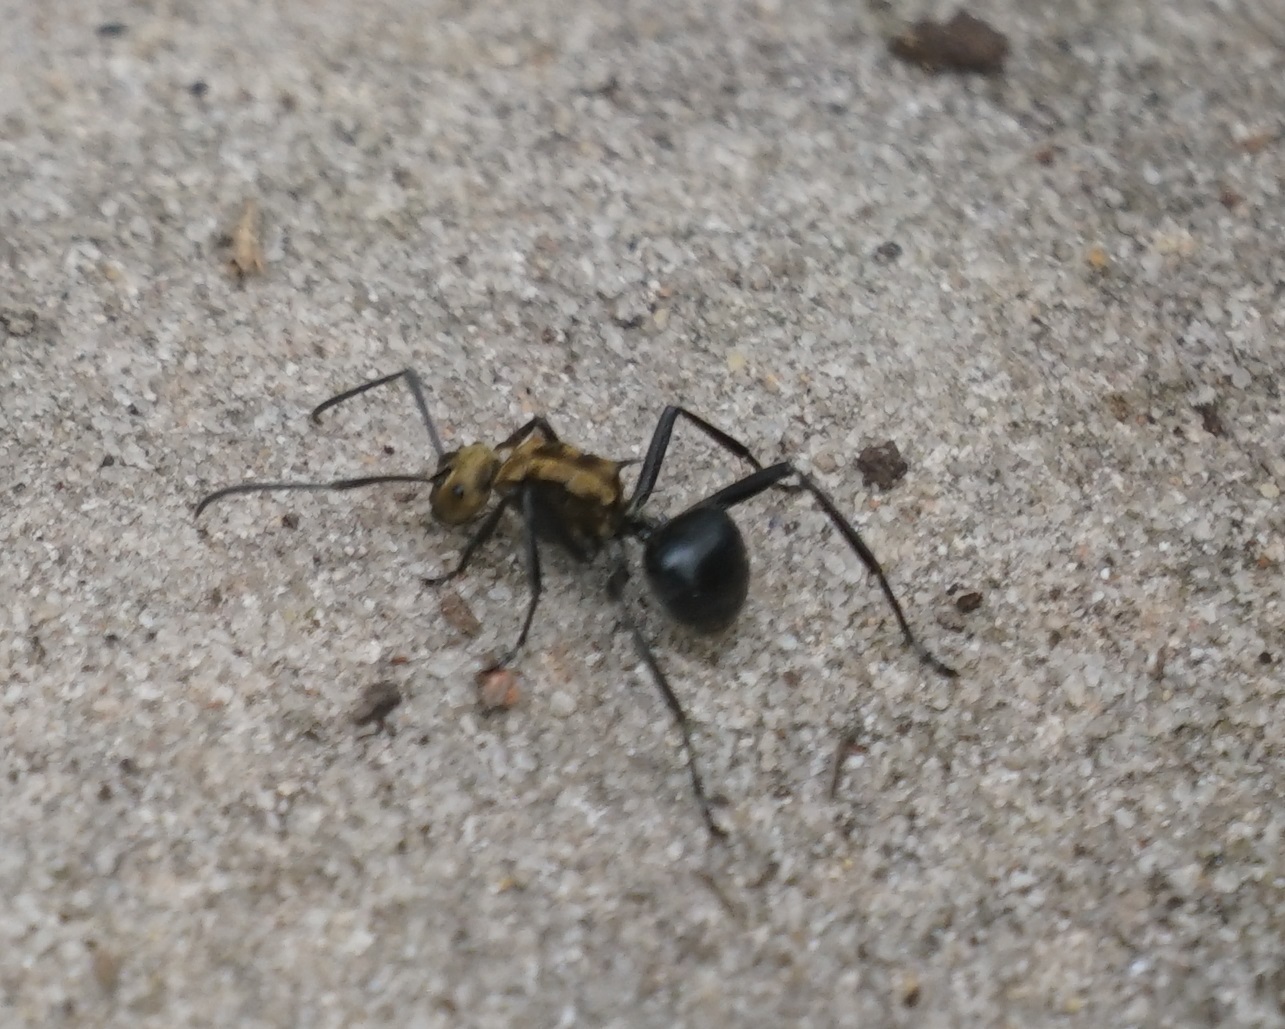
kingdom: Animalia
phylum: Arthropoda
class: Insecta
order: Hymenoptera
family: Formicidae
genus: Polyrhachis
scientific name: Polyrhachis semiaurata
